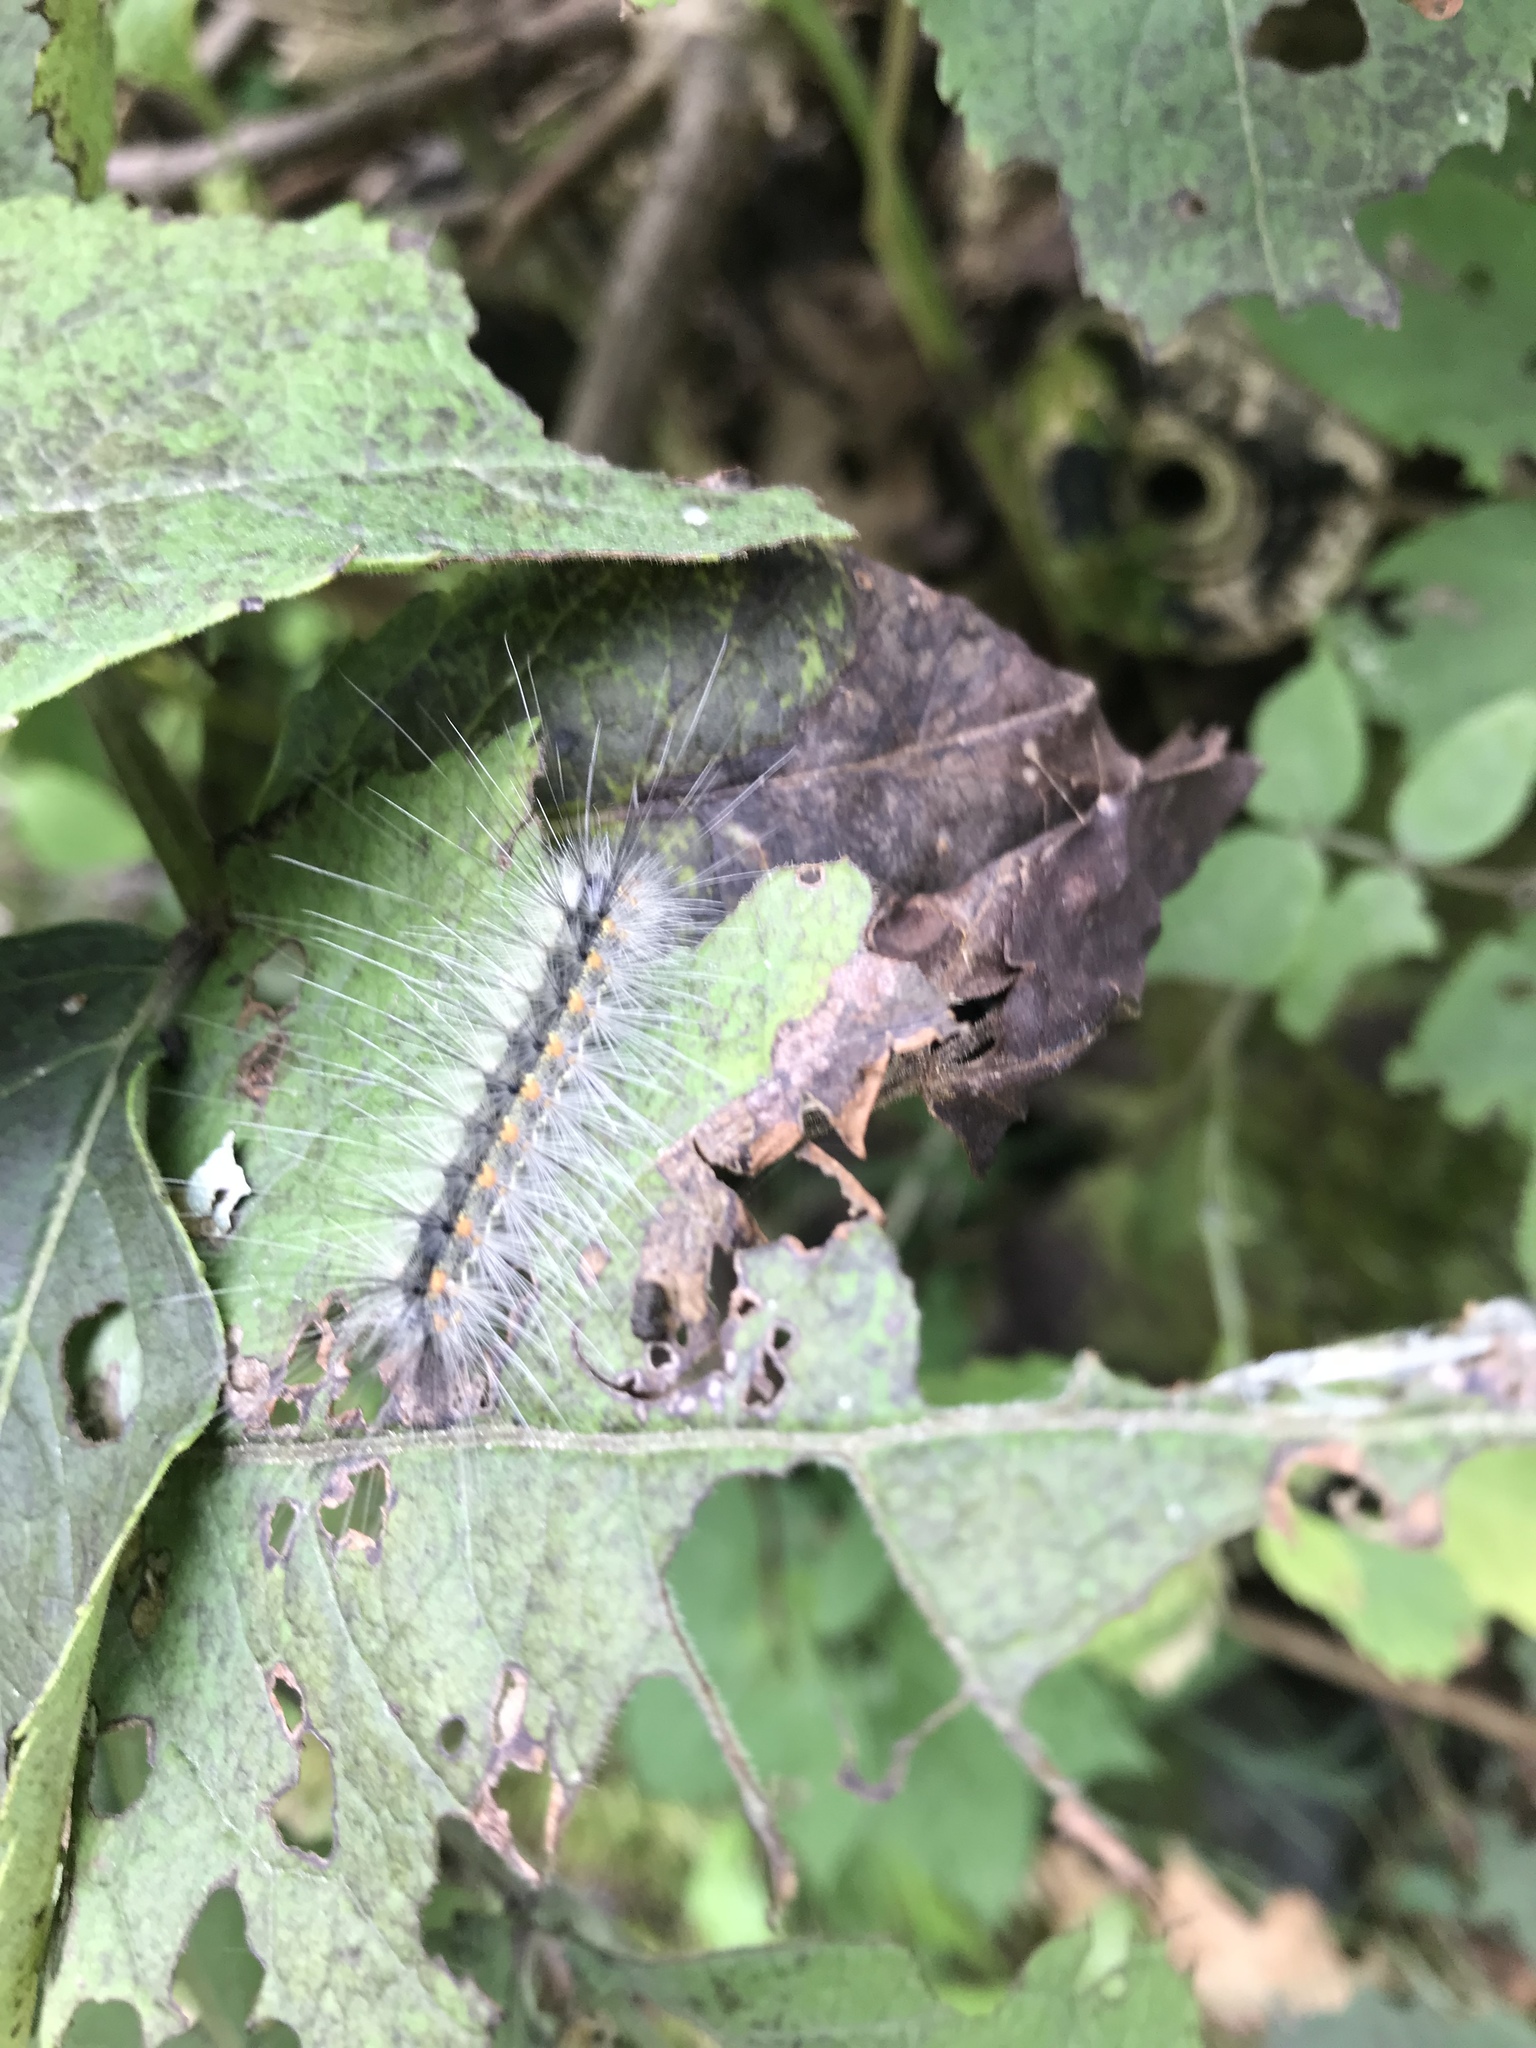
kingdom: Animalia
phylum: Arthropoda
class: Insecta
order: Lepidoptera
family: Erebidae
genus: Hyphantria
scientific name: Hyphantria cunea
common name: American white moth
